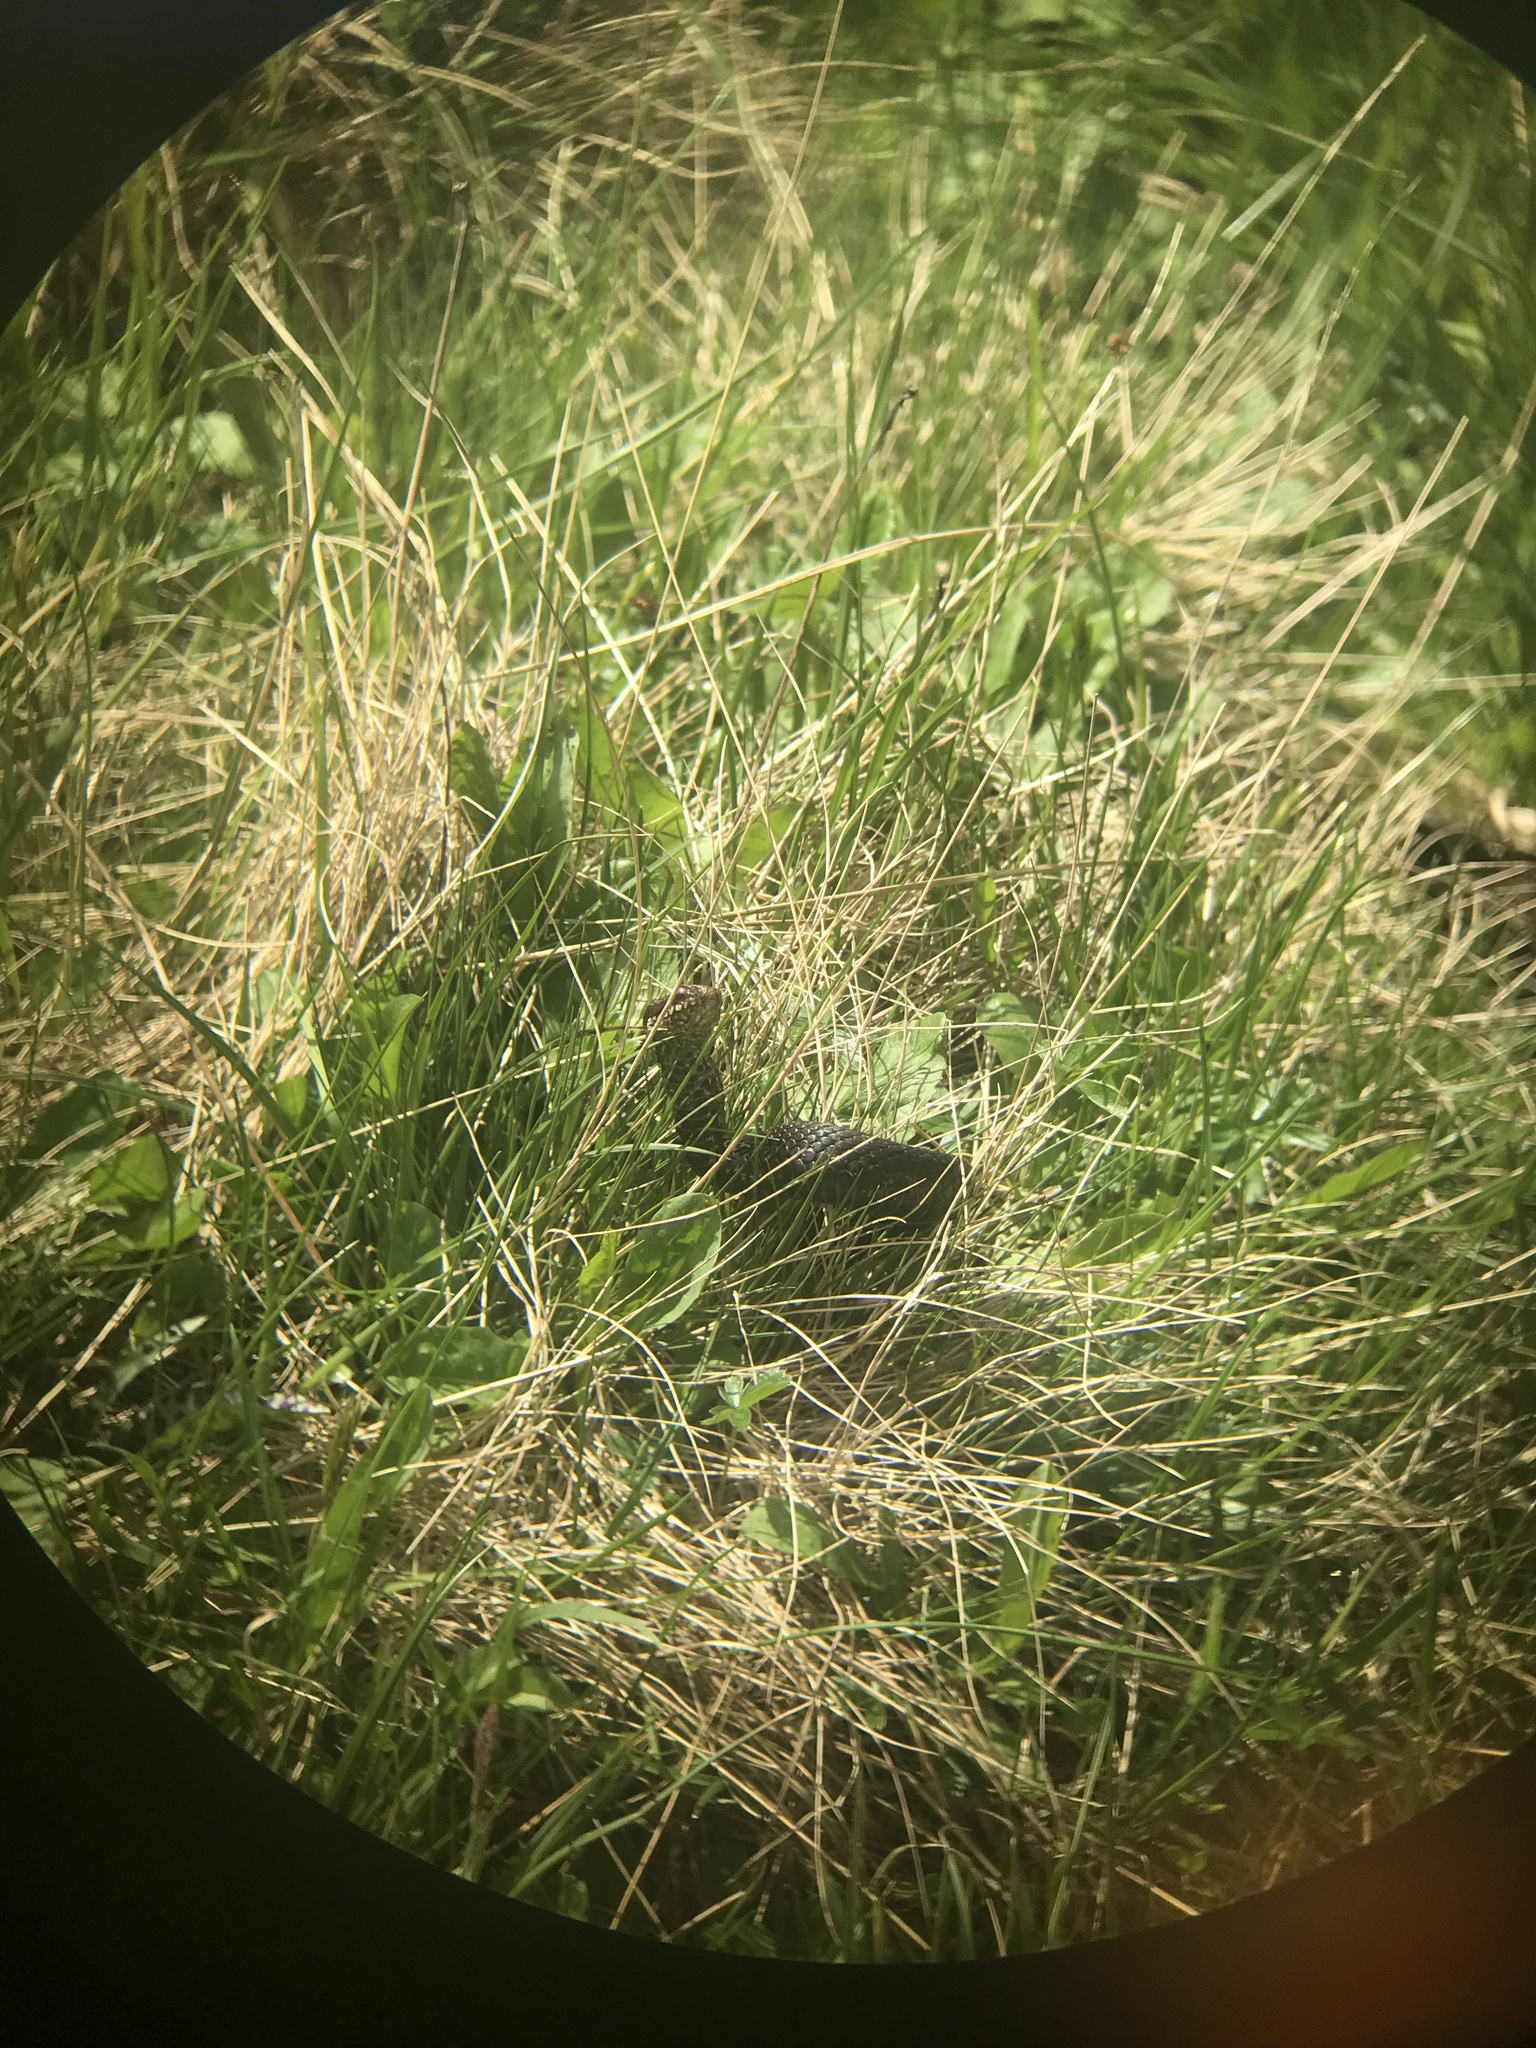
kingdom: Animalia
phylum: Chordata
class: Squamata
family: Viperidae
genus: Vipera
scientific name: Vipera berus
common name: Adder
